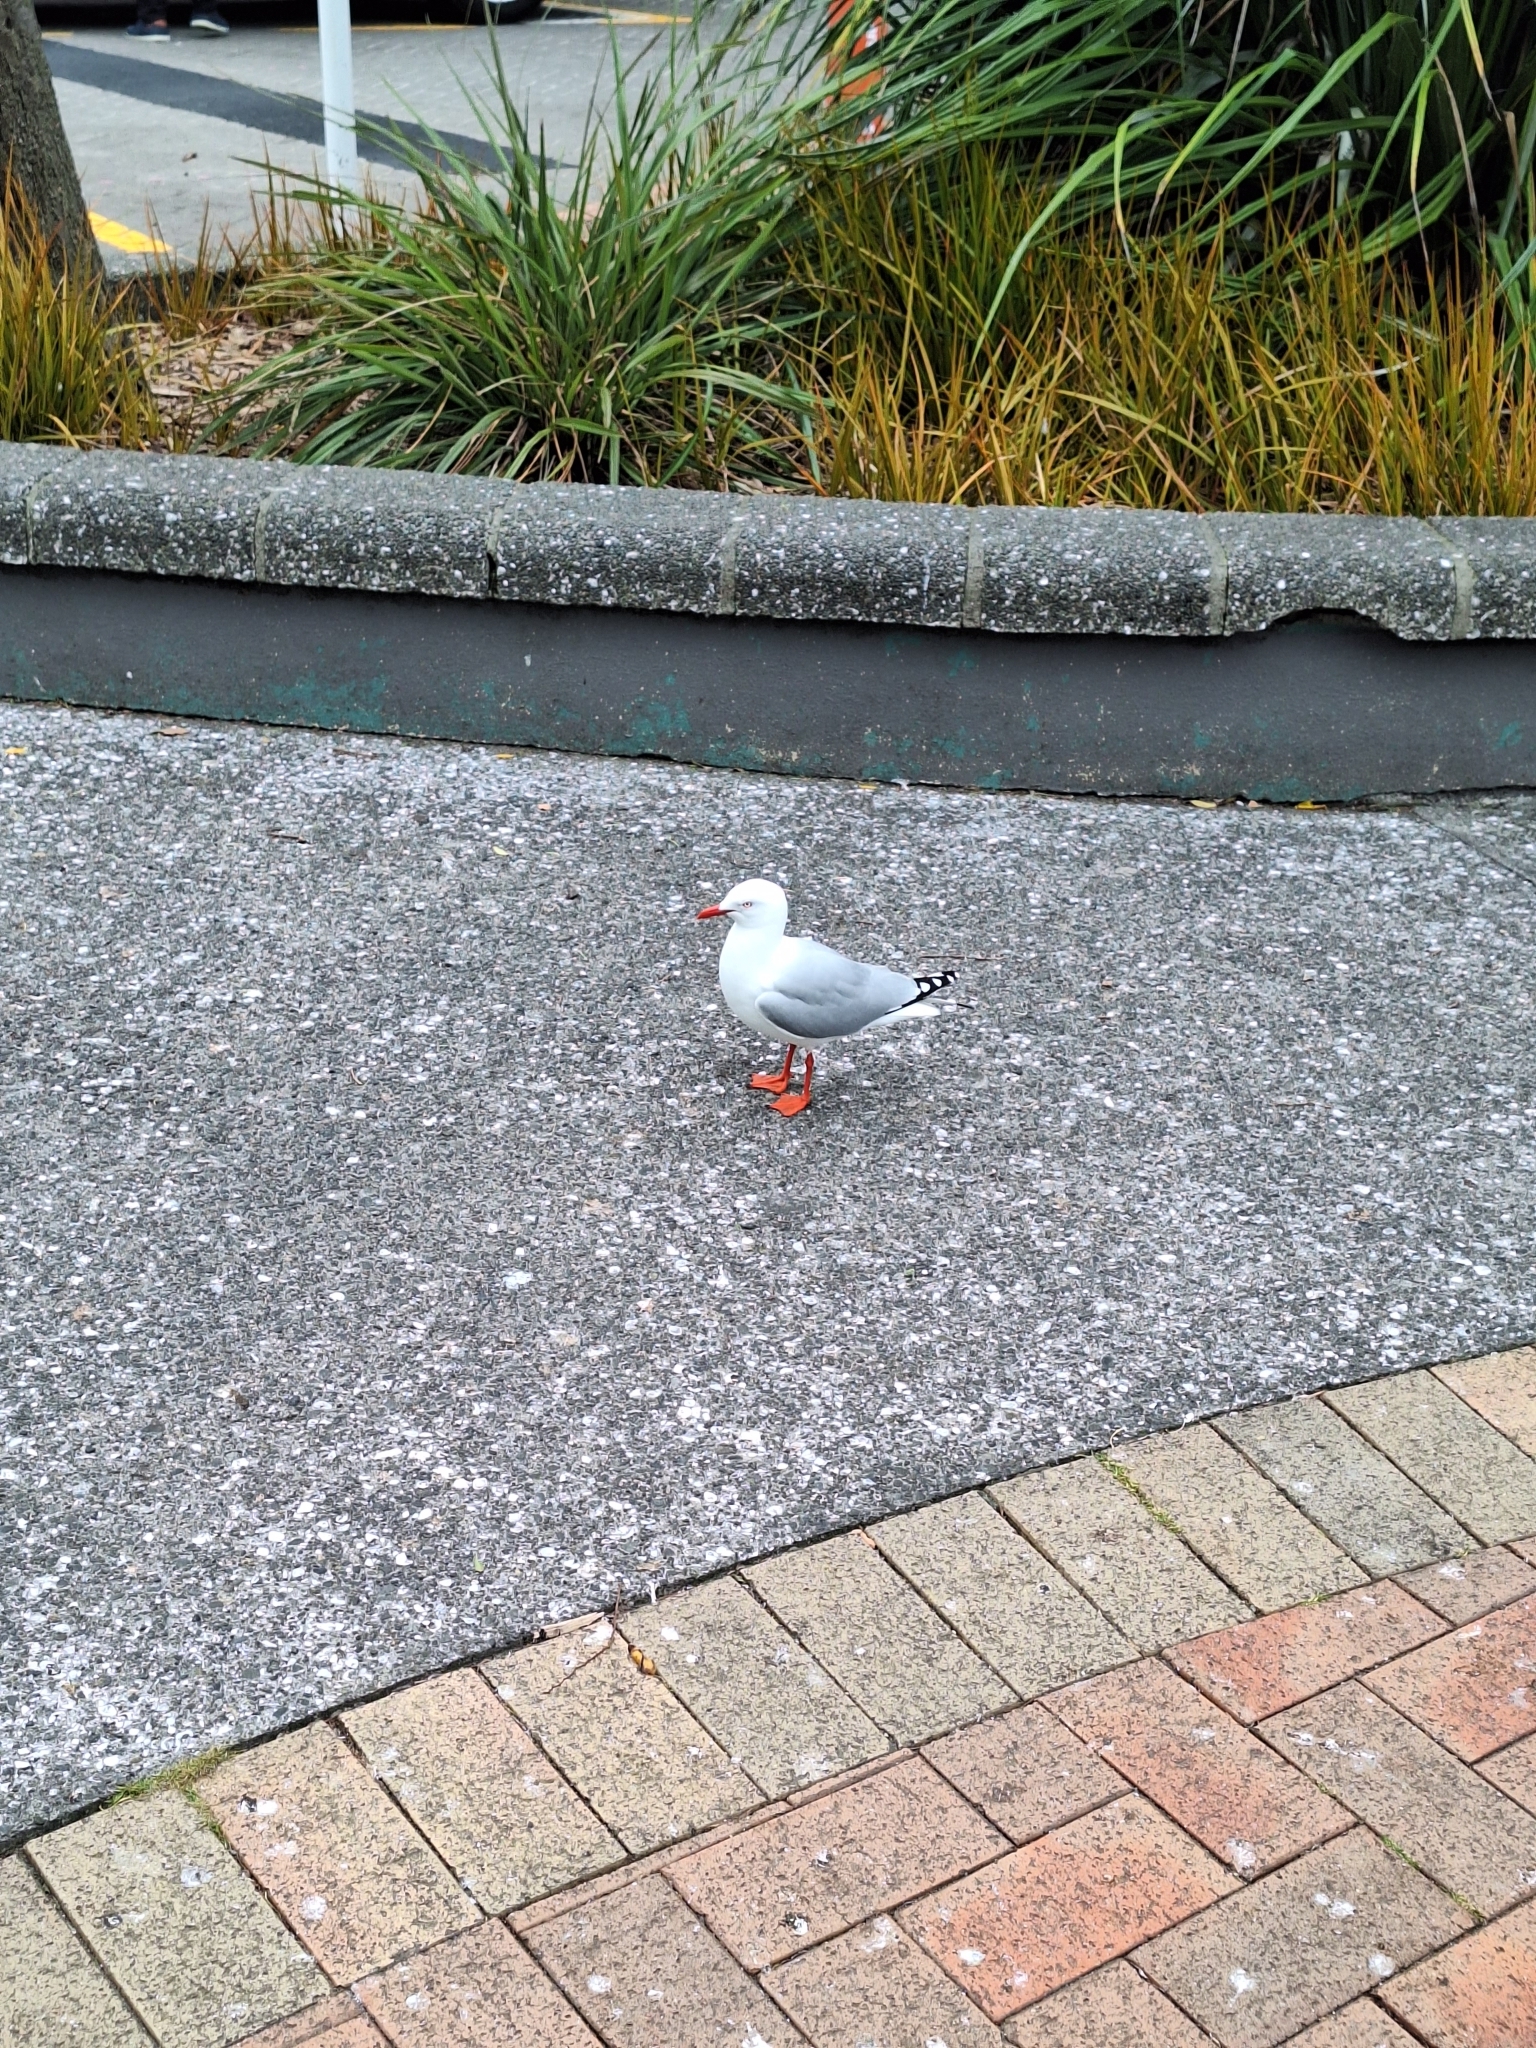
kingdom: Animalia
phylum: Chordata
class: Aves
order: Charadriiformes
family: Laridae
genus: Chroicocephalus
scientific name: Chroicocephalus novaehollandiae
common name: Silver gull
